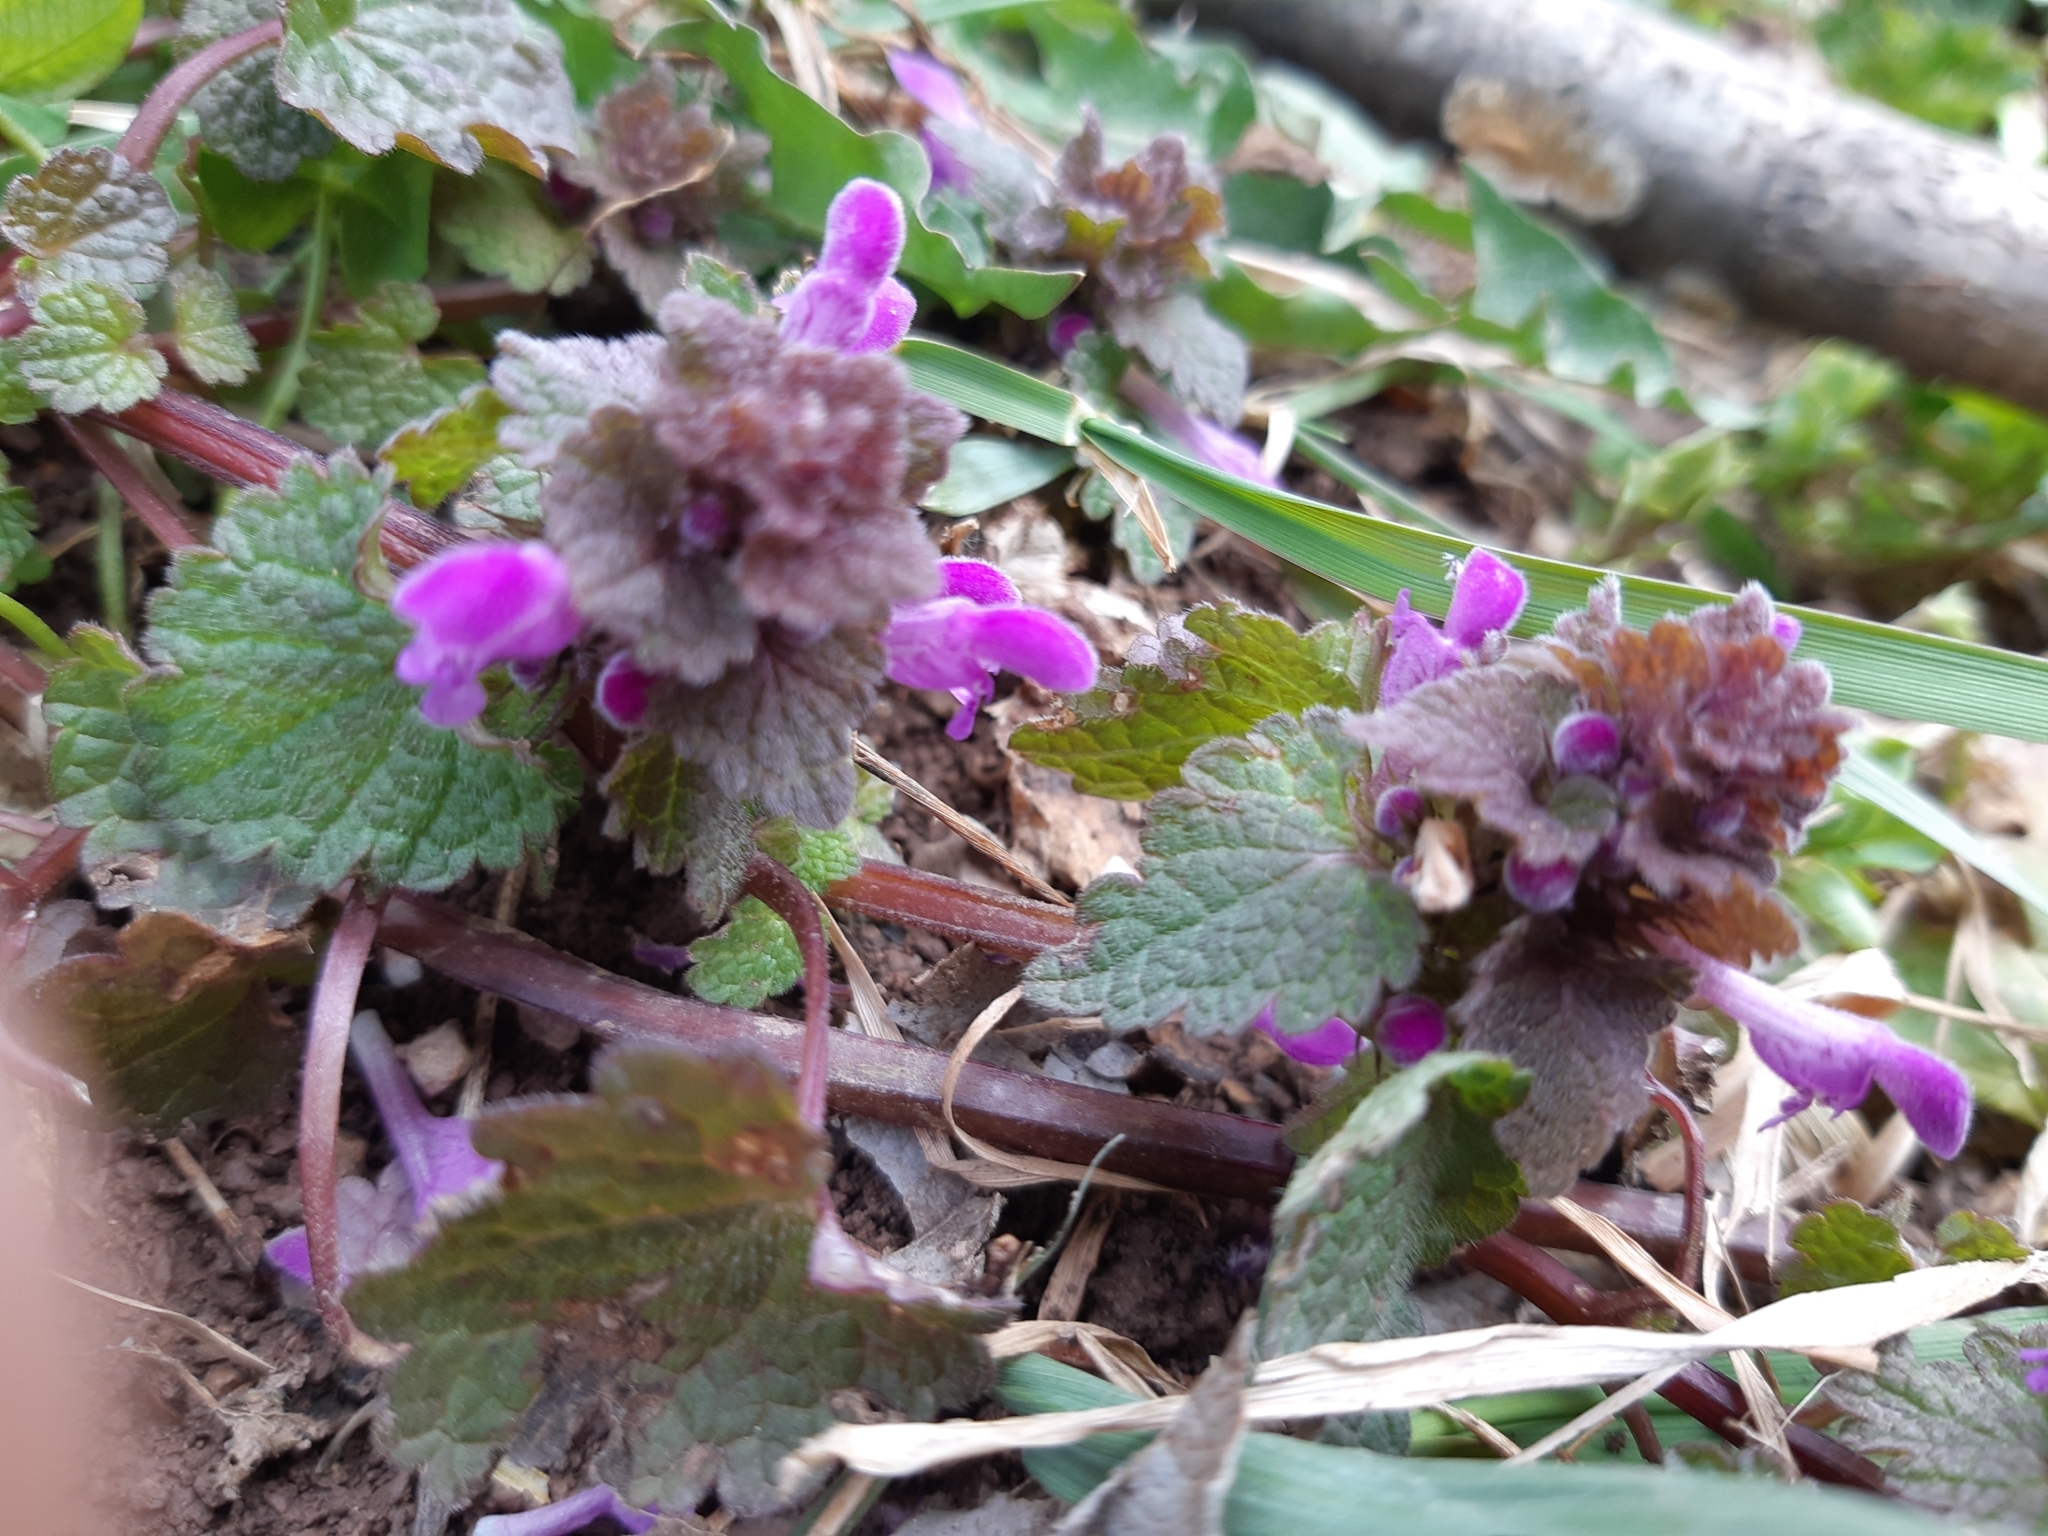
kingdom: Plantae
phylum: Tracheophyta
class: Magnoliopsida
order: Lamiales
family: Lamiaceae
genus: Lamium
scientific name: Lamium purpureum
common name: Red dead-nettle
